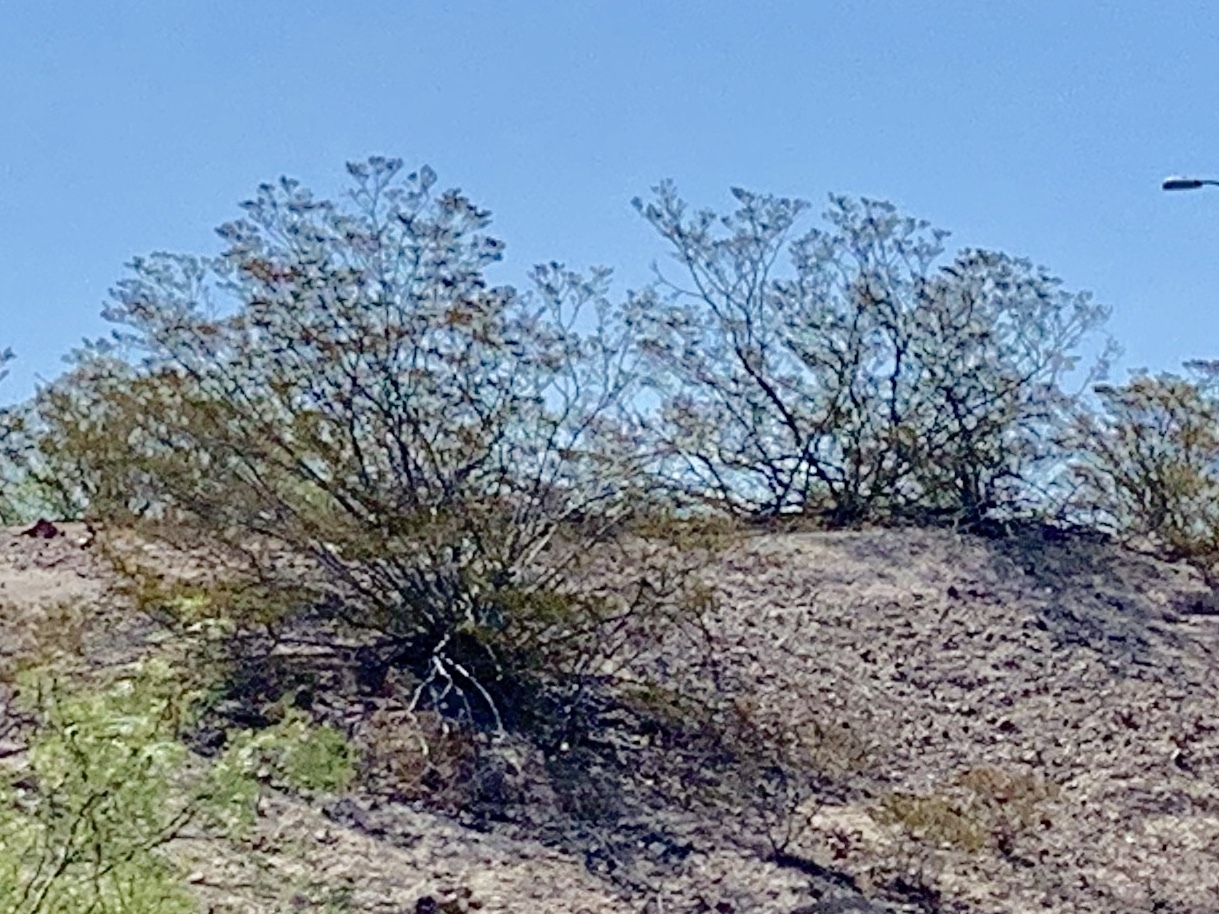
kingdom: Plantae
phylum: Tracheophyta
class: Magnoliopsida
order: Zygophyllales
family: Zygophyllaceae
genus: Larrea
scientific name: Larrea tridentata
